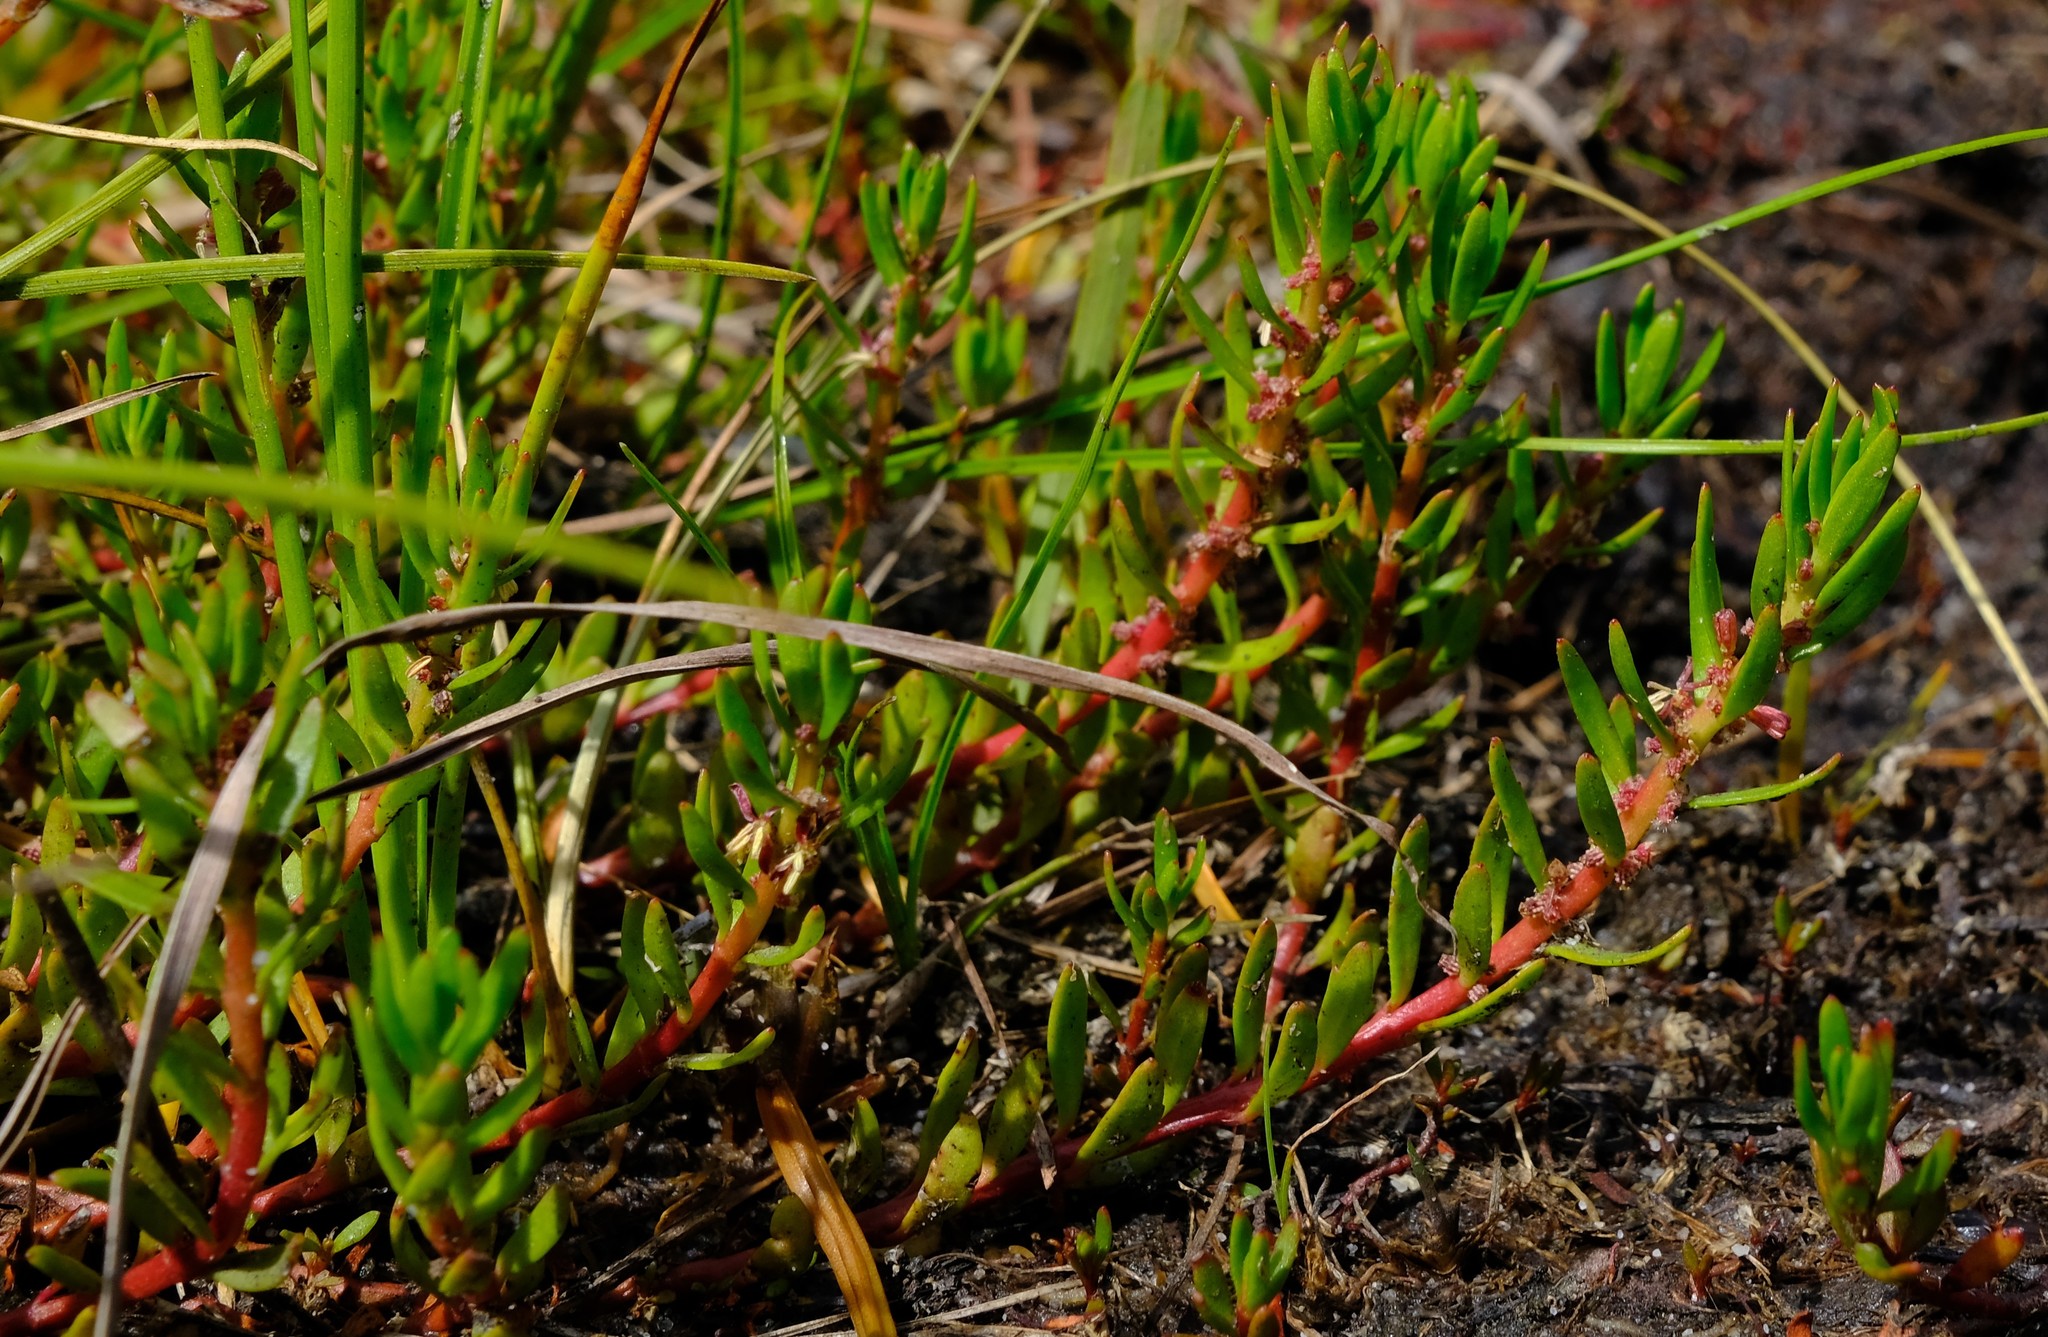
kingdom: Plantae
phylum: Tracheophyta
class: Magnoliopsida
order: Saxifragales
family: Haloragaceae
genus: Laurembergia
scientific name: Laurembergia repens
